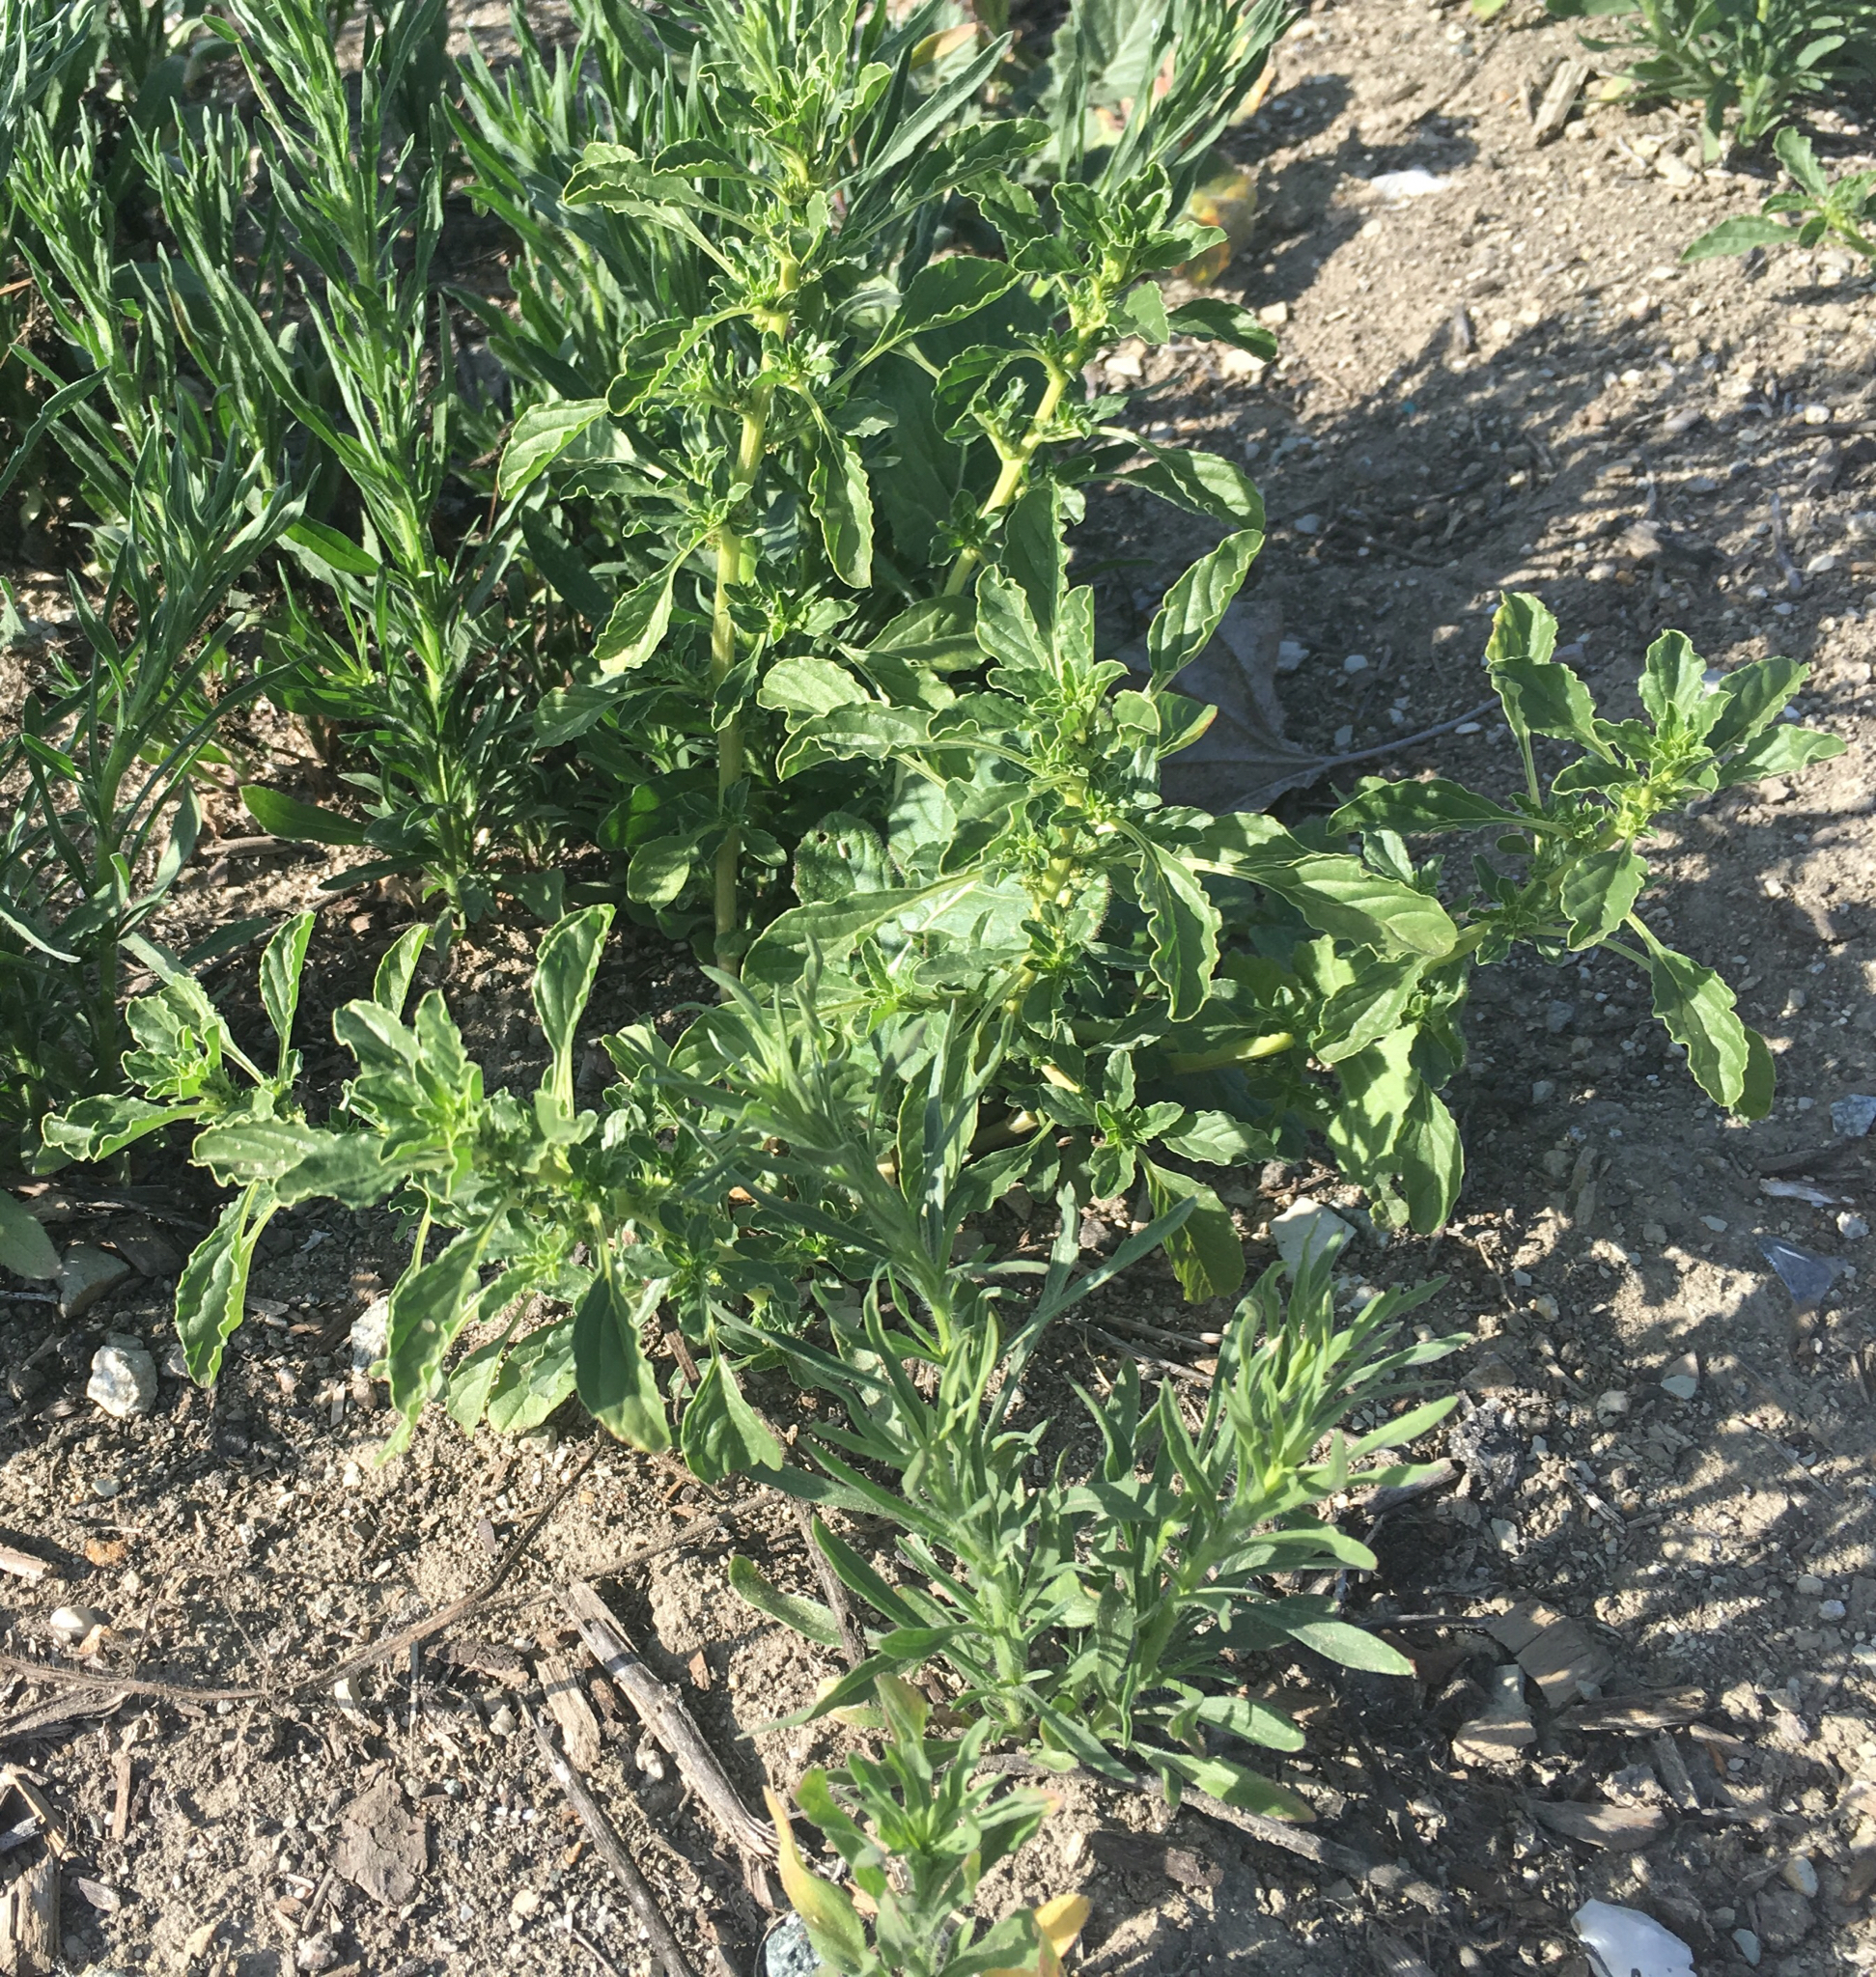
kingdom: Plantae
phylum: Tracheophyta
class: Magnoliopsida
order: Caryophyllales
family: Amaranthaceae
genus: Amaranthus
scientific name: Amaranthus albus
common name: White pigweed
